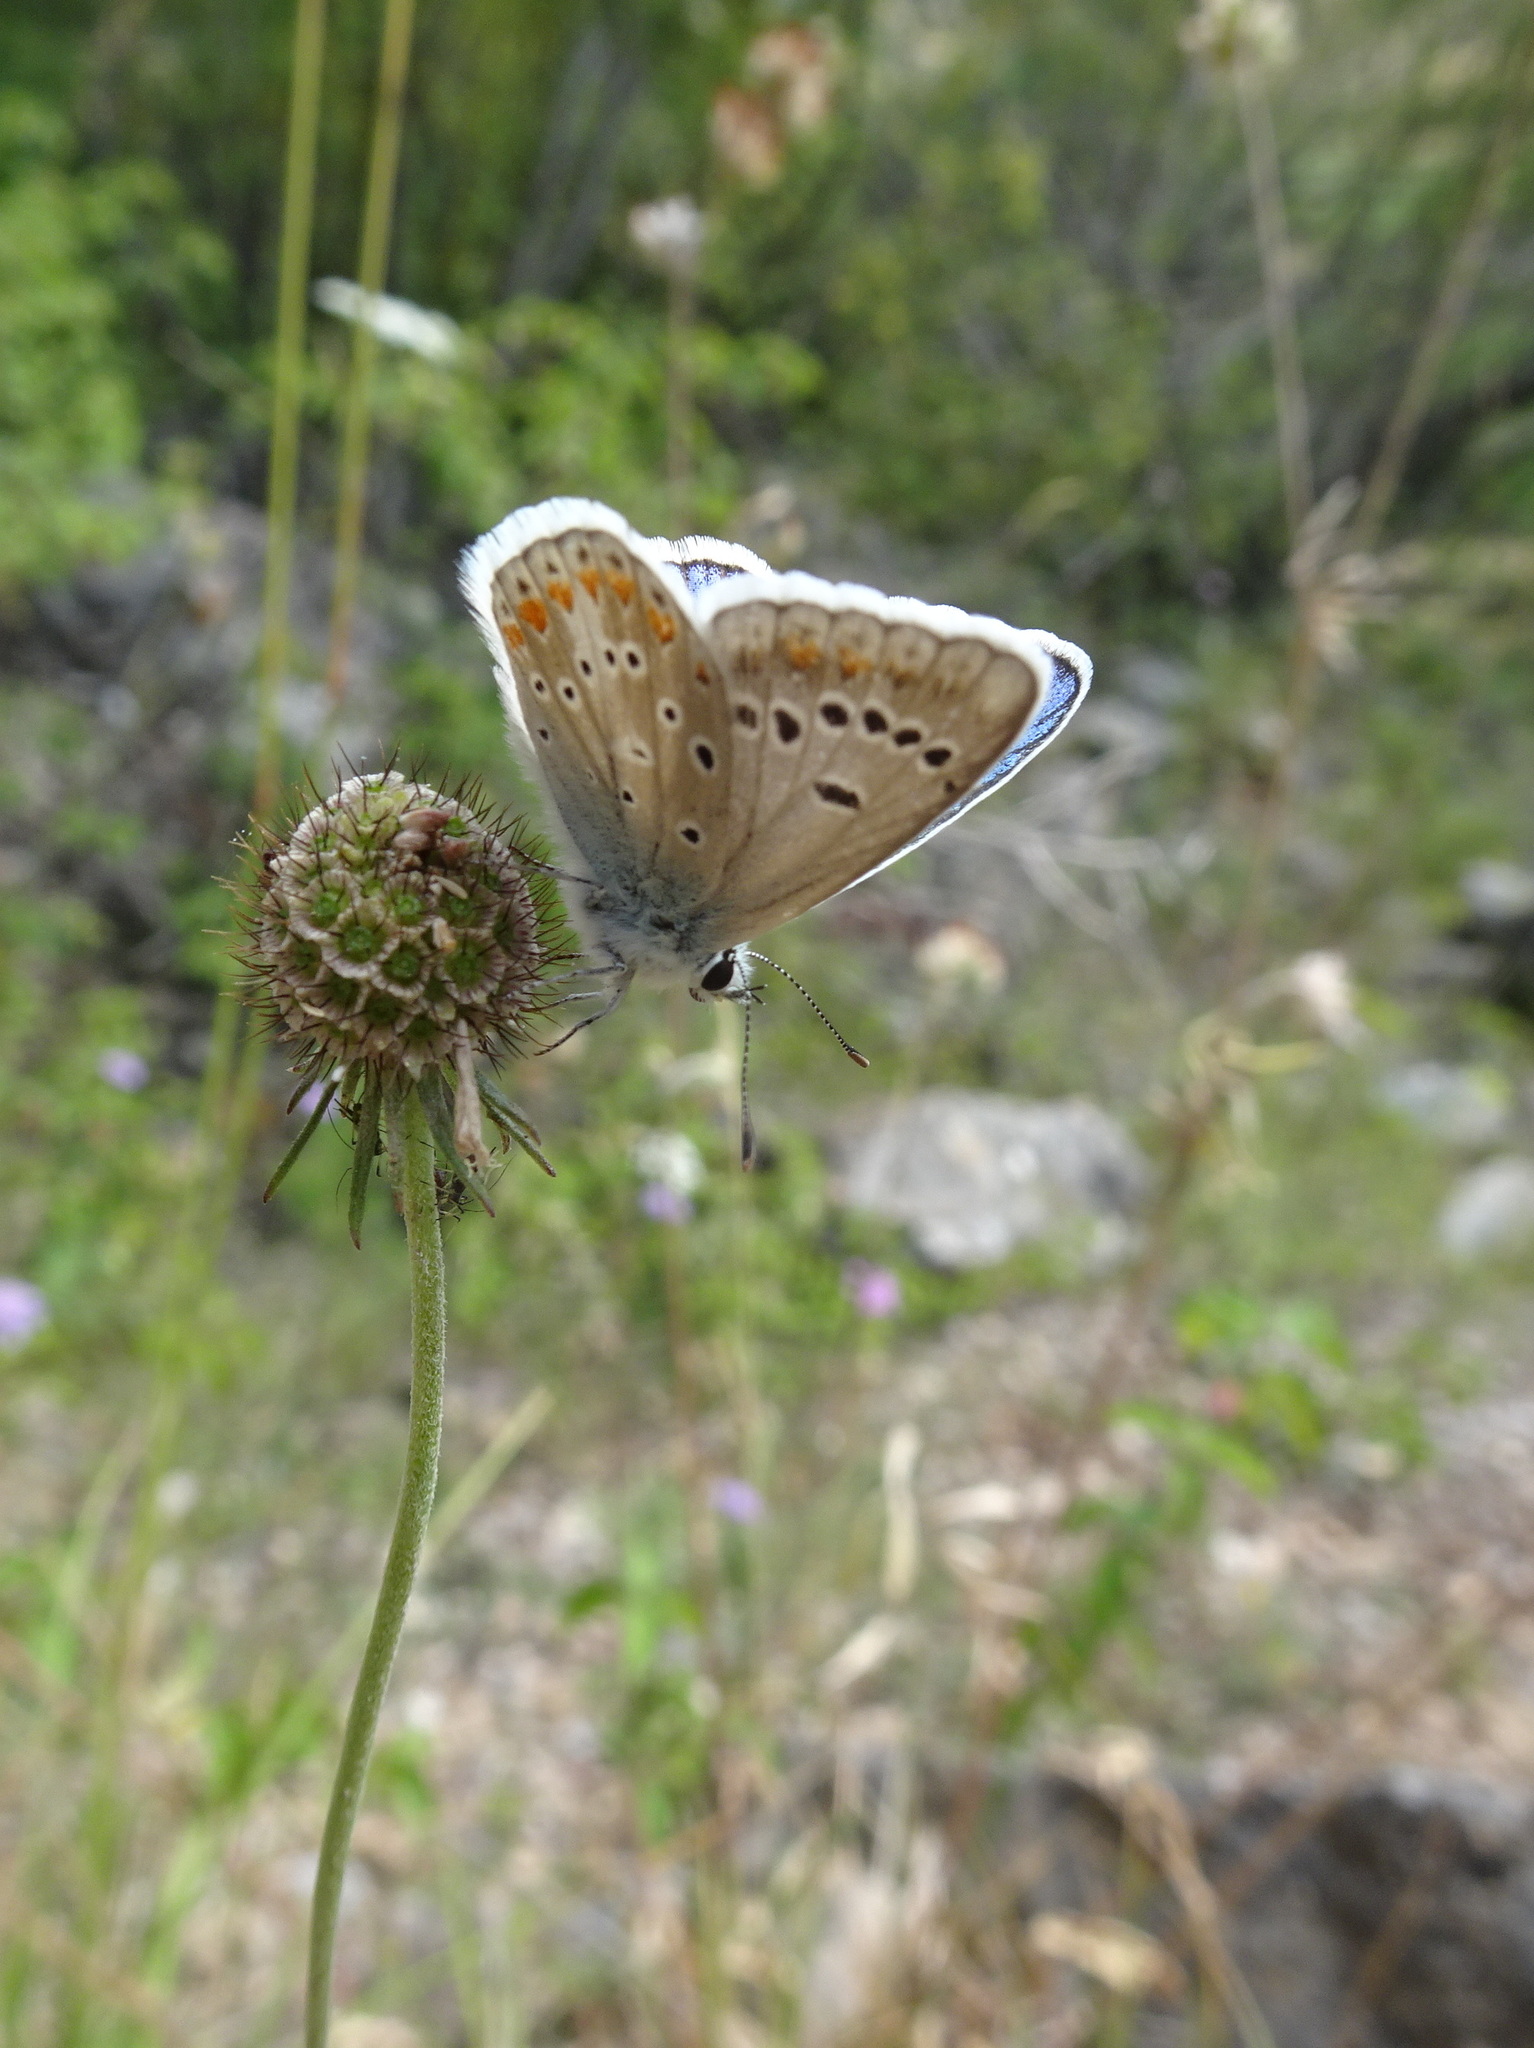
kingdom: Animalia
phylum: Arthropoda
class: Insecta
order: Lepidoptera
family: Lycaenidae
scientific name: Lycaenidae
